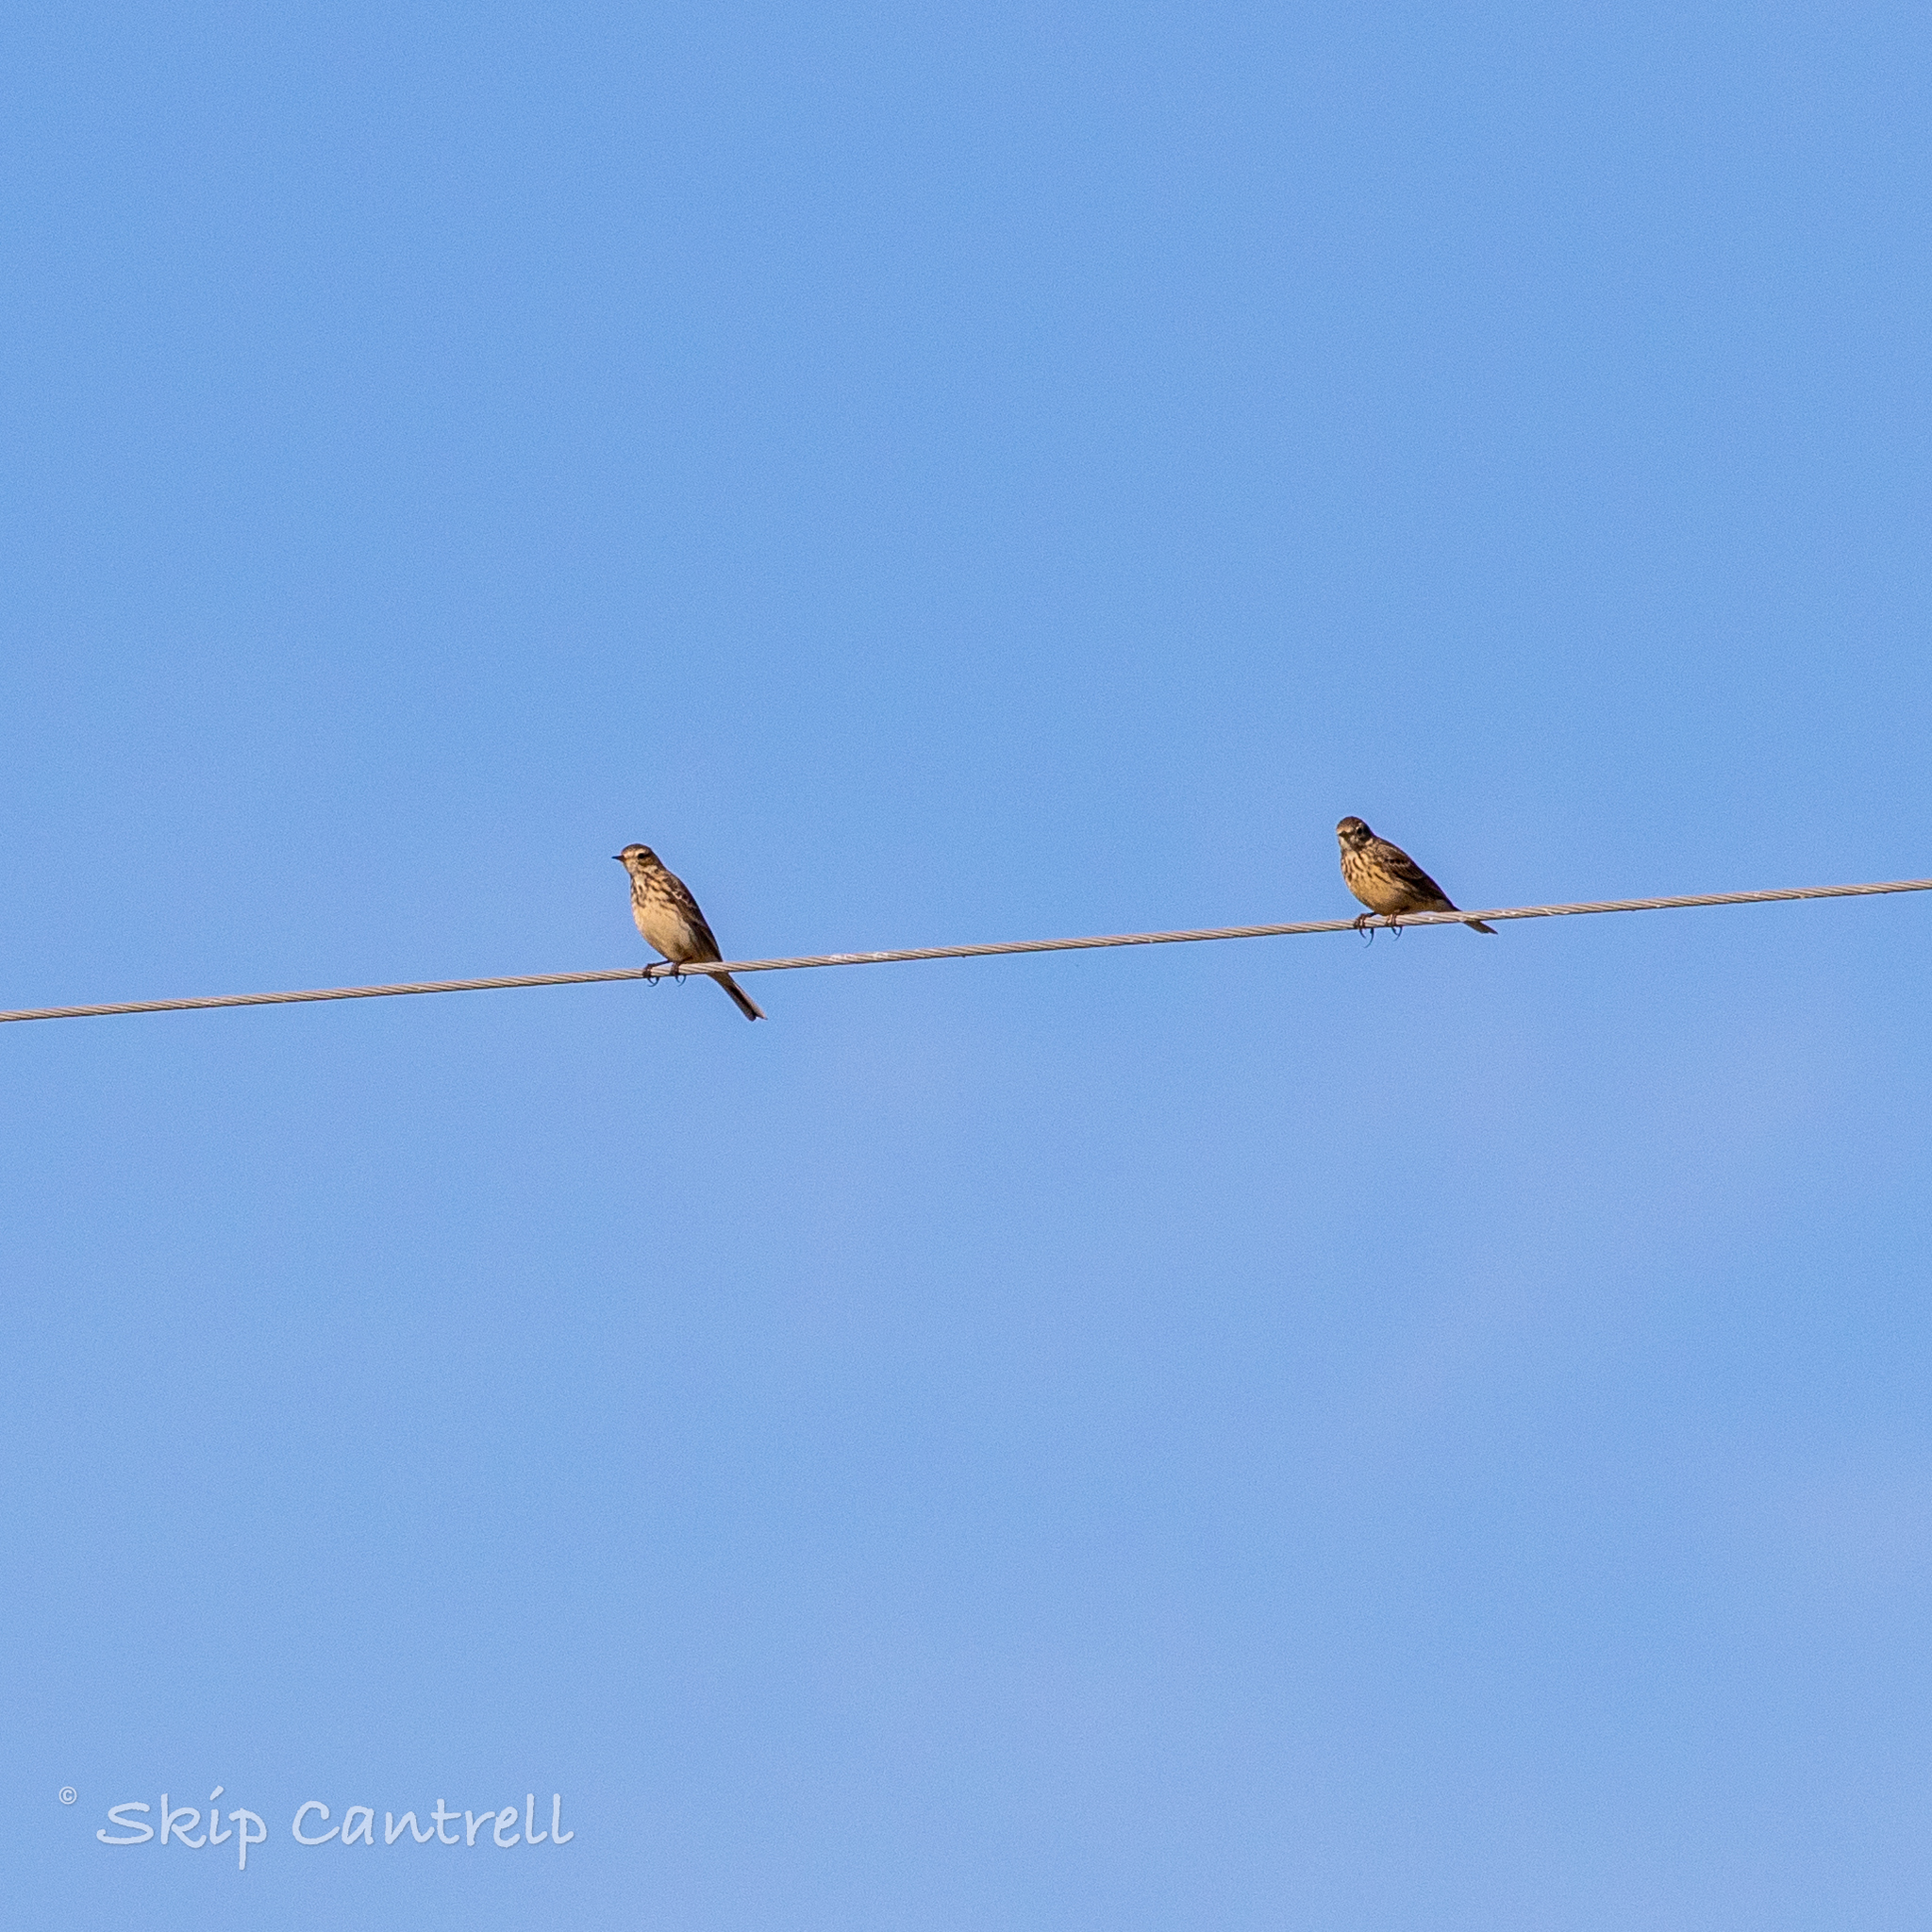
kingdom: Animalia
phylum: Chordata
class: Aves
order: Passeriformes
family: Motacillidae
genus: Anthus
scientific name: Anthus rubescens
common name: Buff-bellied pipit
